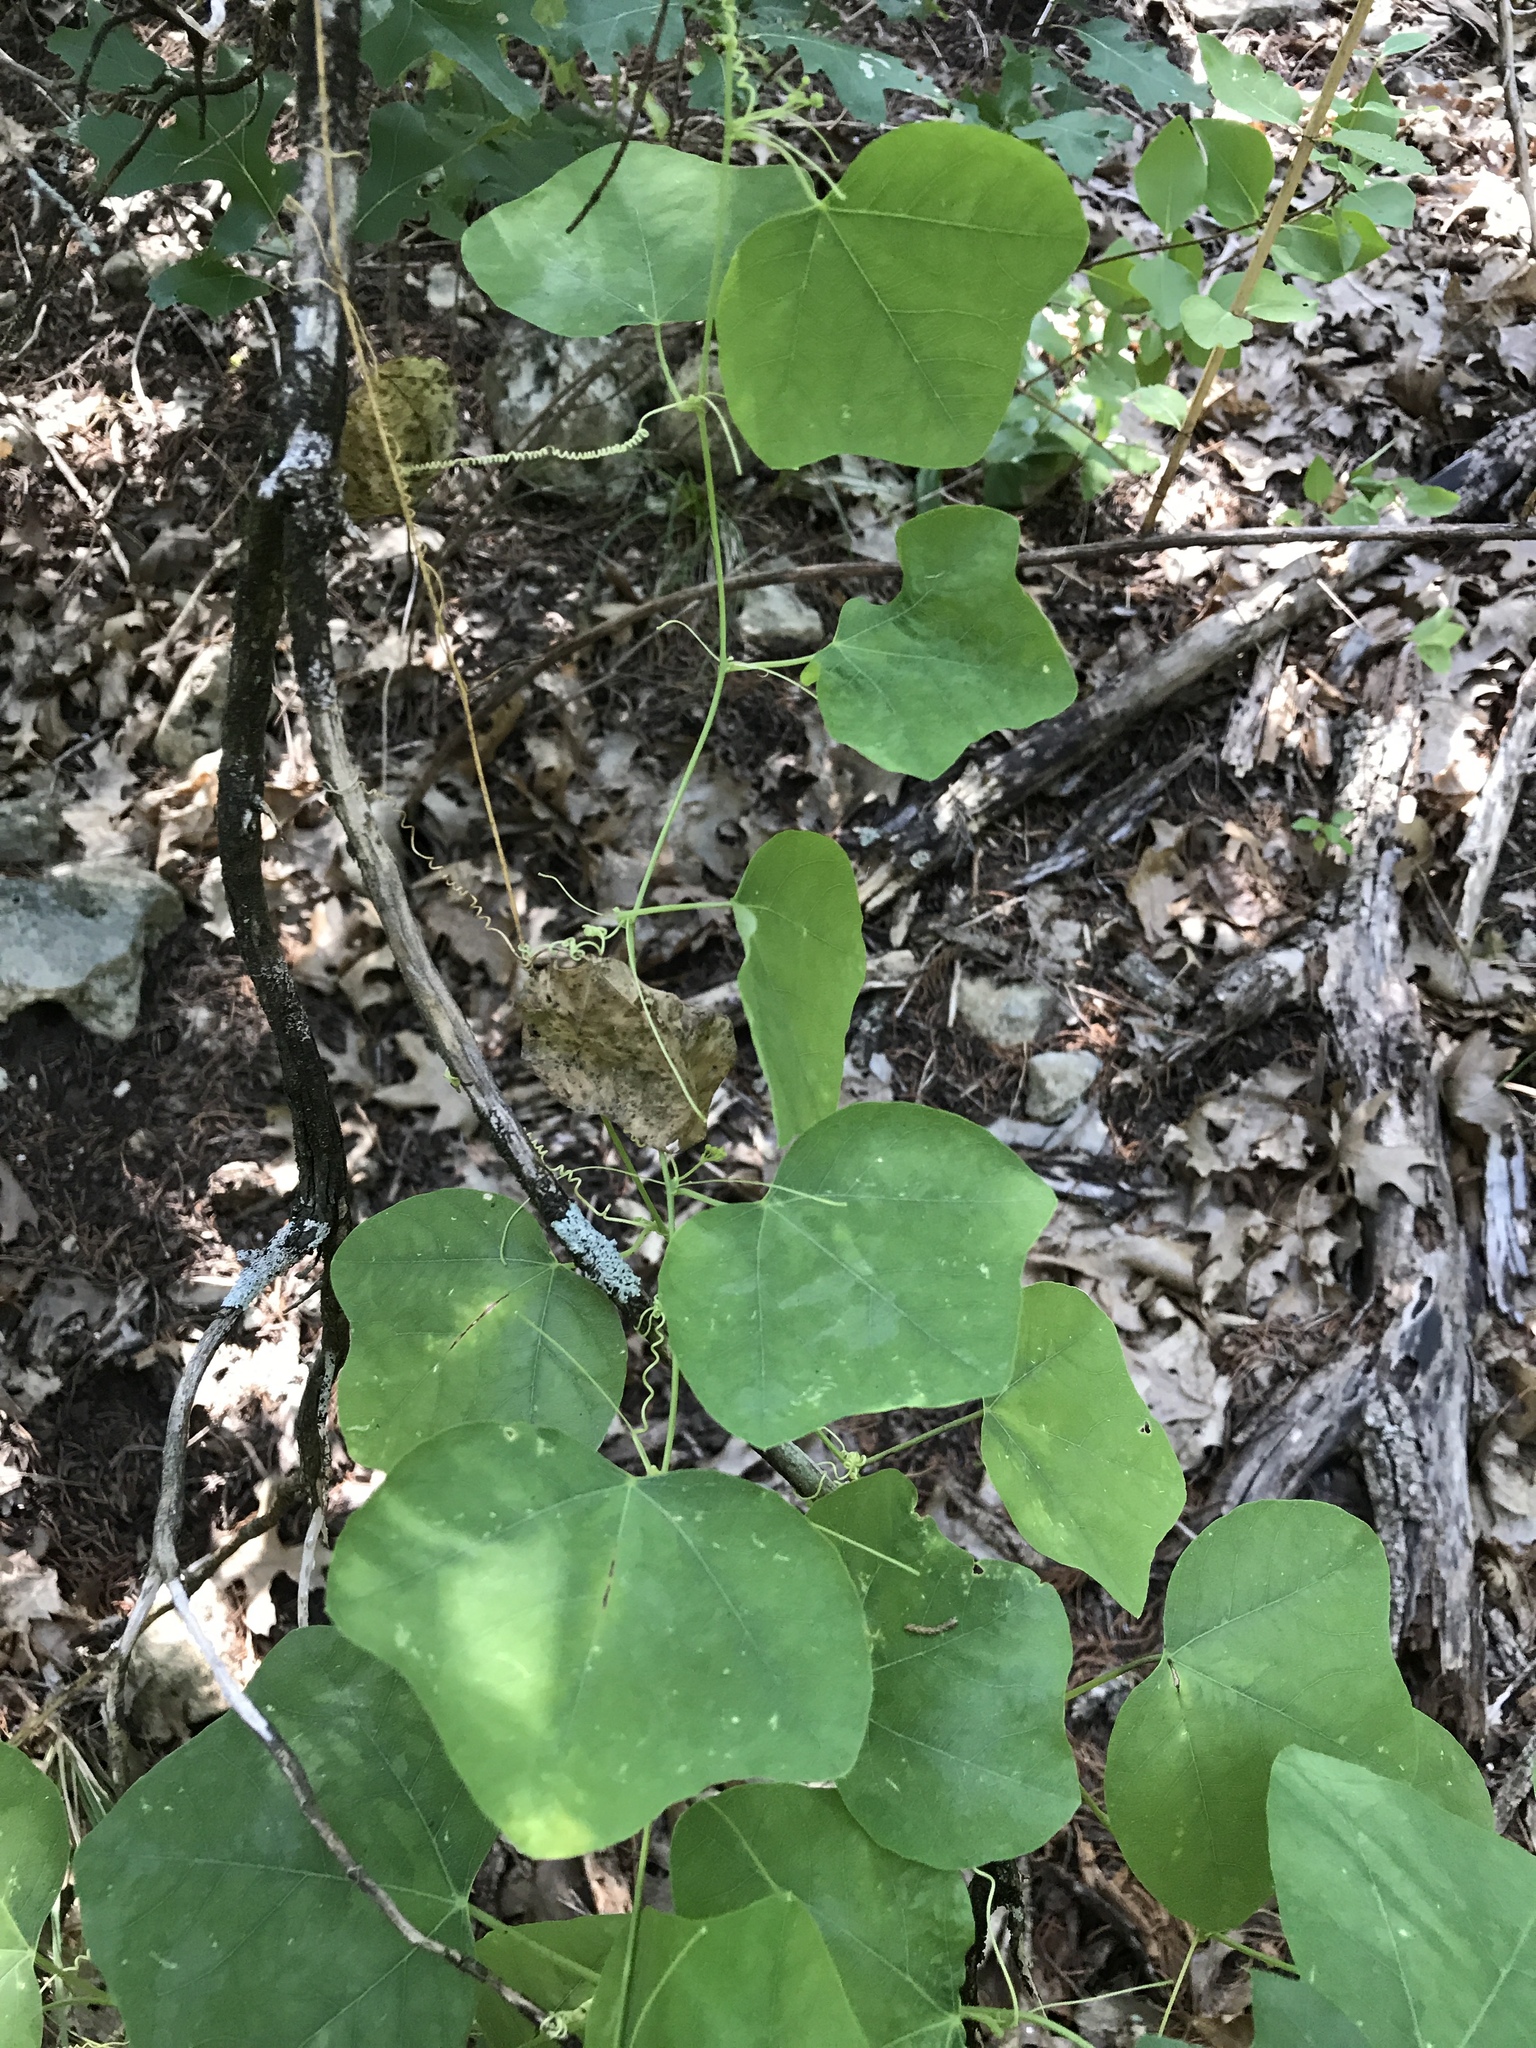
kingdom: Plantae
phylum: Tracheophyta
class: Magnoliopsida
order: Malpighiales
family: Passifloraceae
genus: Passiflora
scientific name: Passiflora lutea
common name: Yellow passionflower
